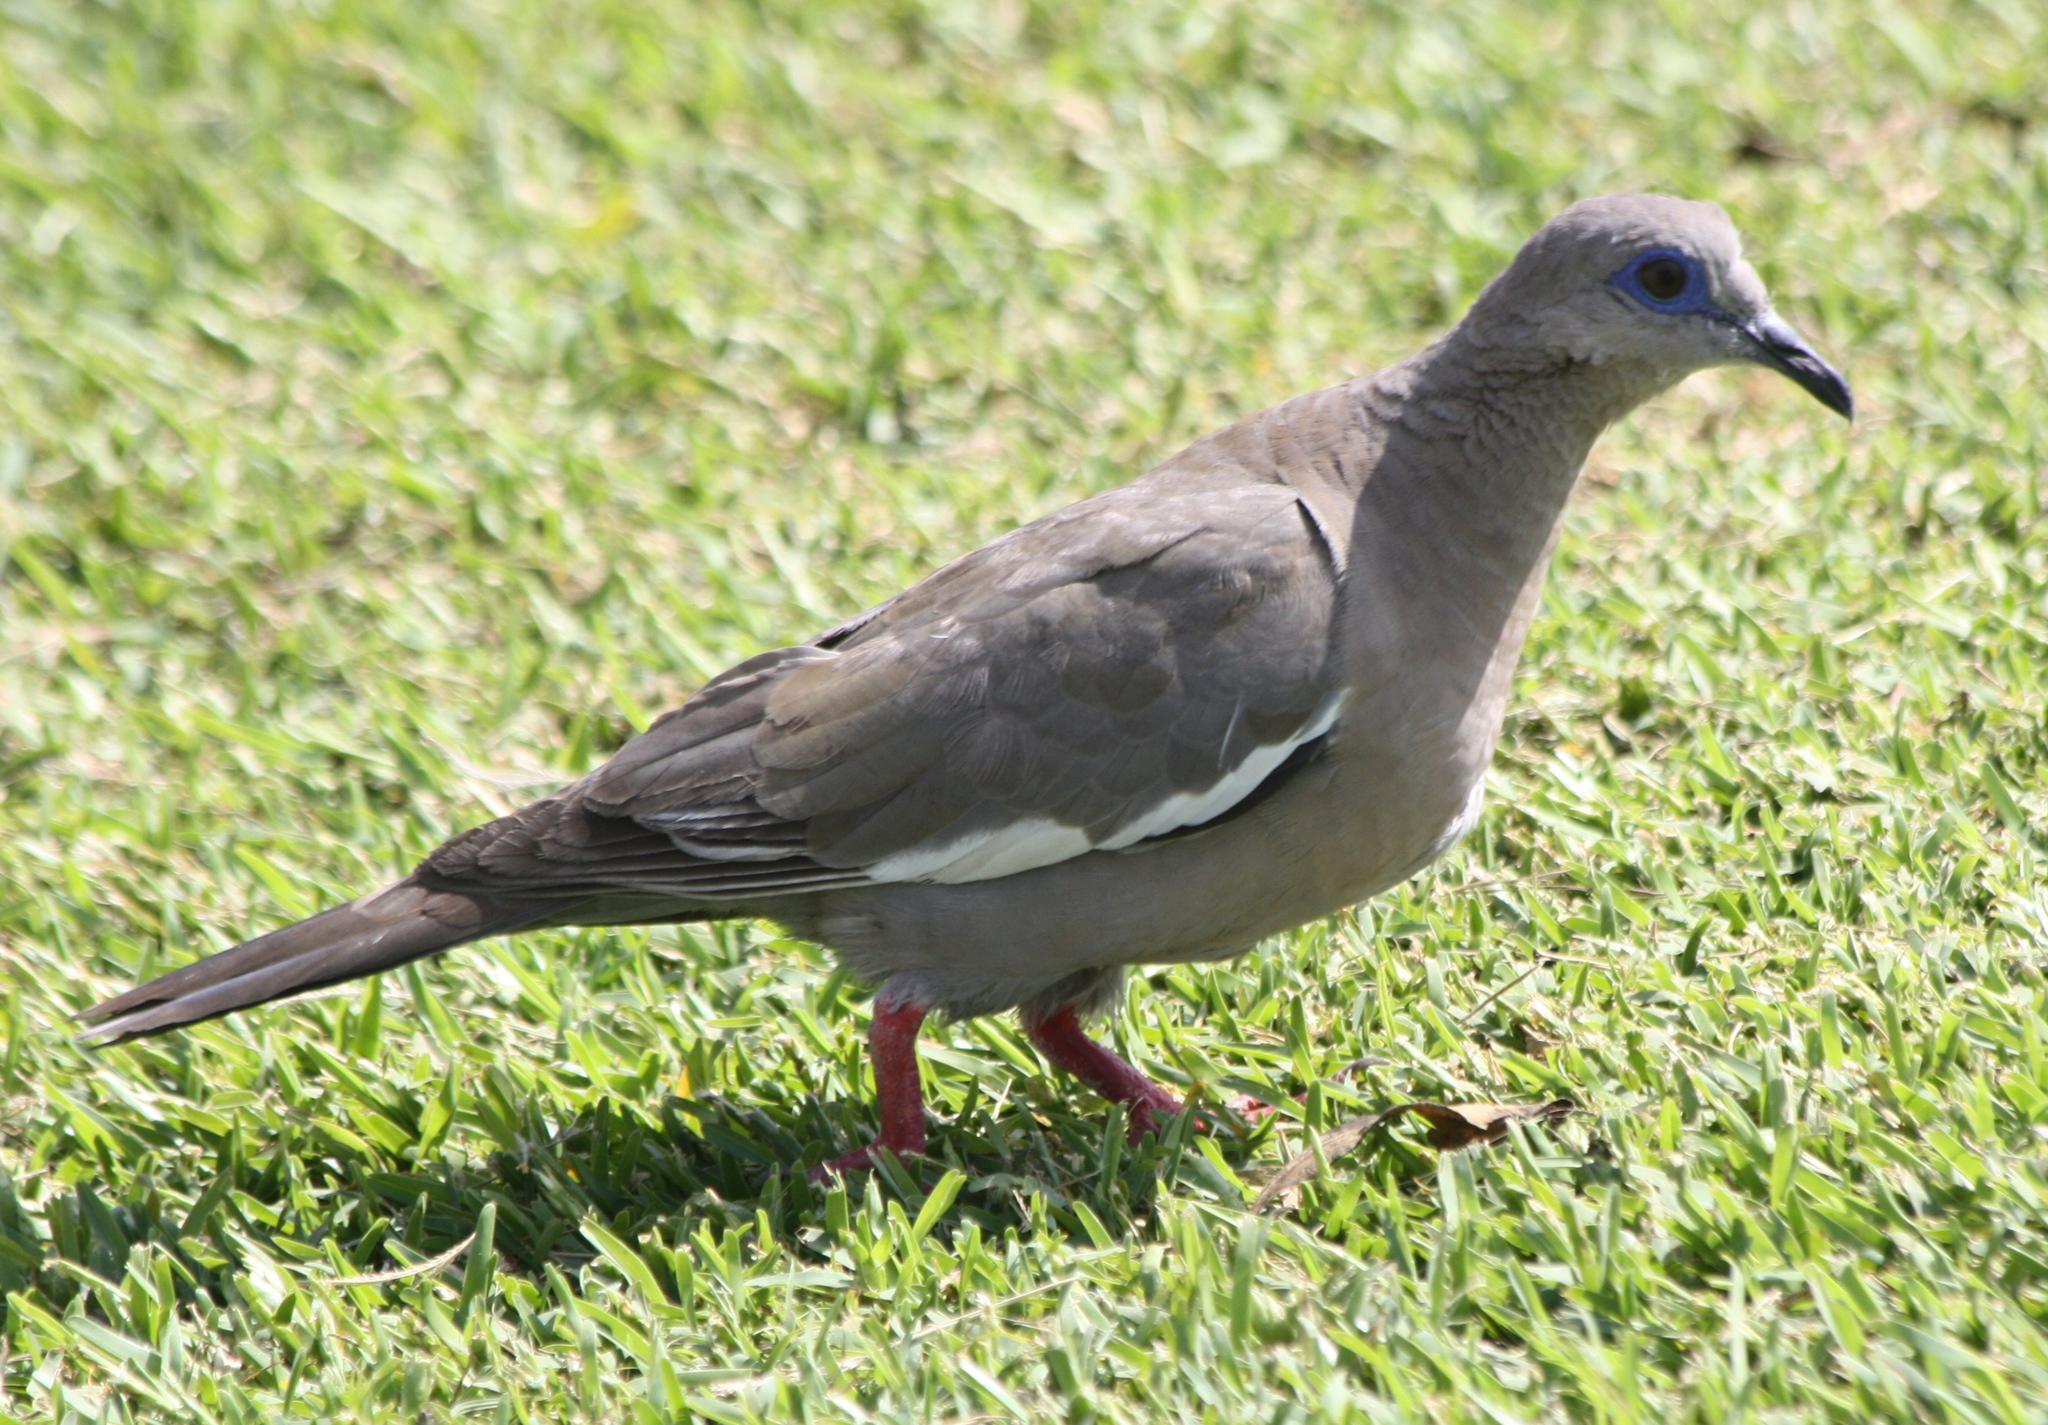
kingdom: Animalia
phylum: Chordata
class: Aves
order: Columbiformes
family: Columbidae
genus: Zenaida
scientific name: Zenaida meloda
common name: West peruvian dove
